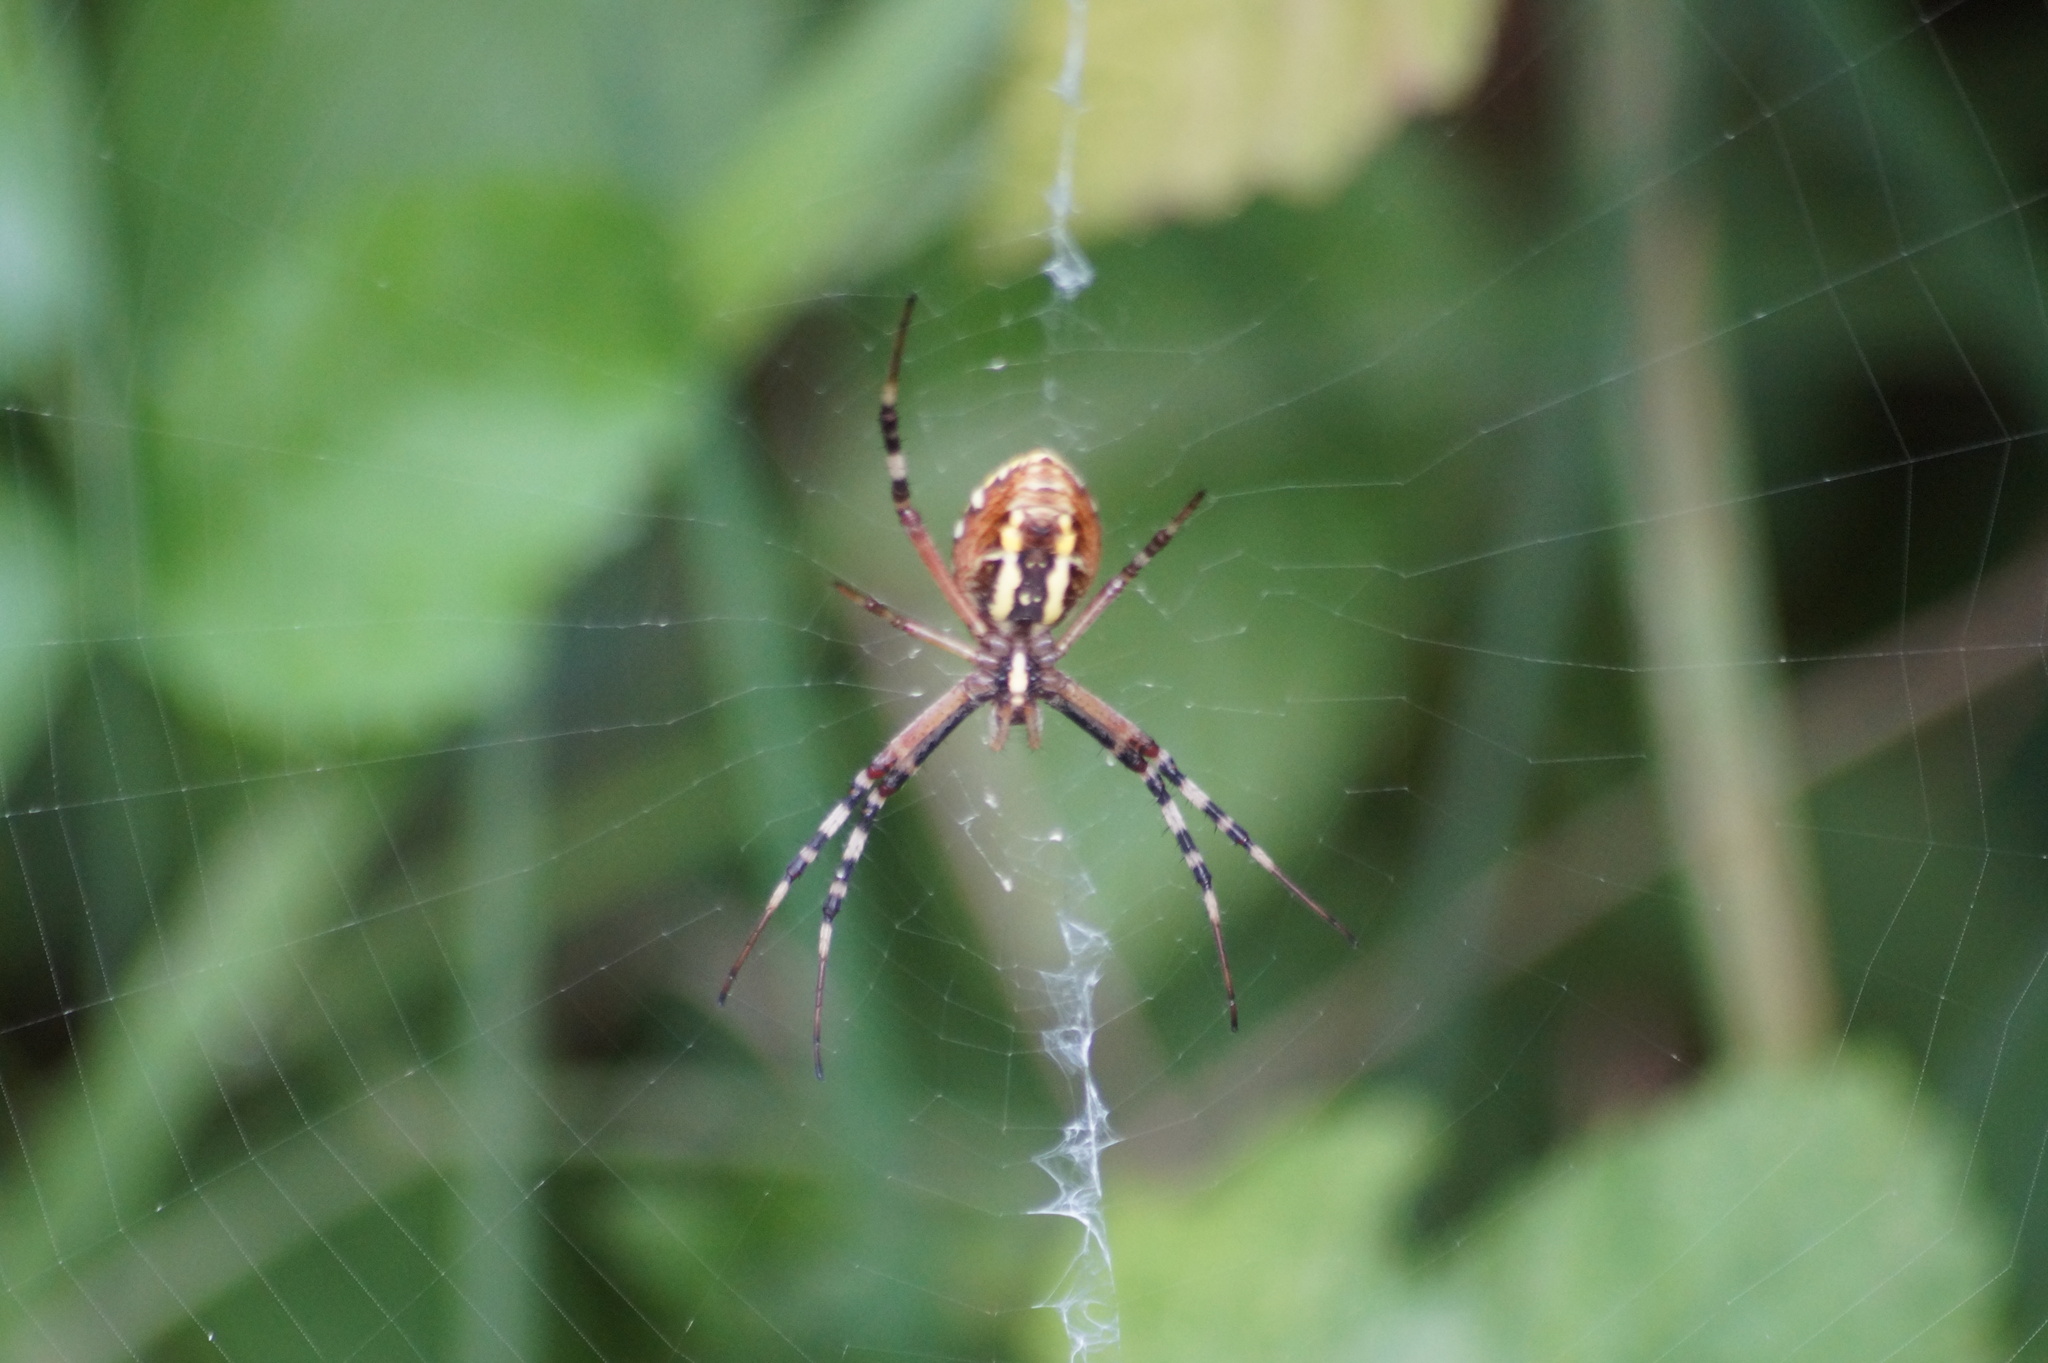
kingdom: Animalia
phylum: Arthropoda
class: Arachnida
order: Araneae
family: Araneidae
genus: Argiope
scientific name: Argiope bruennichi
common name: Wasp spider
